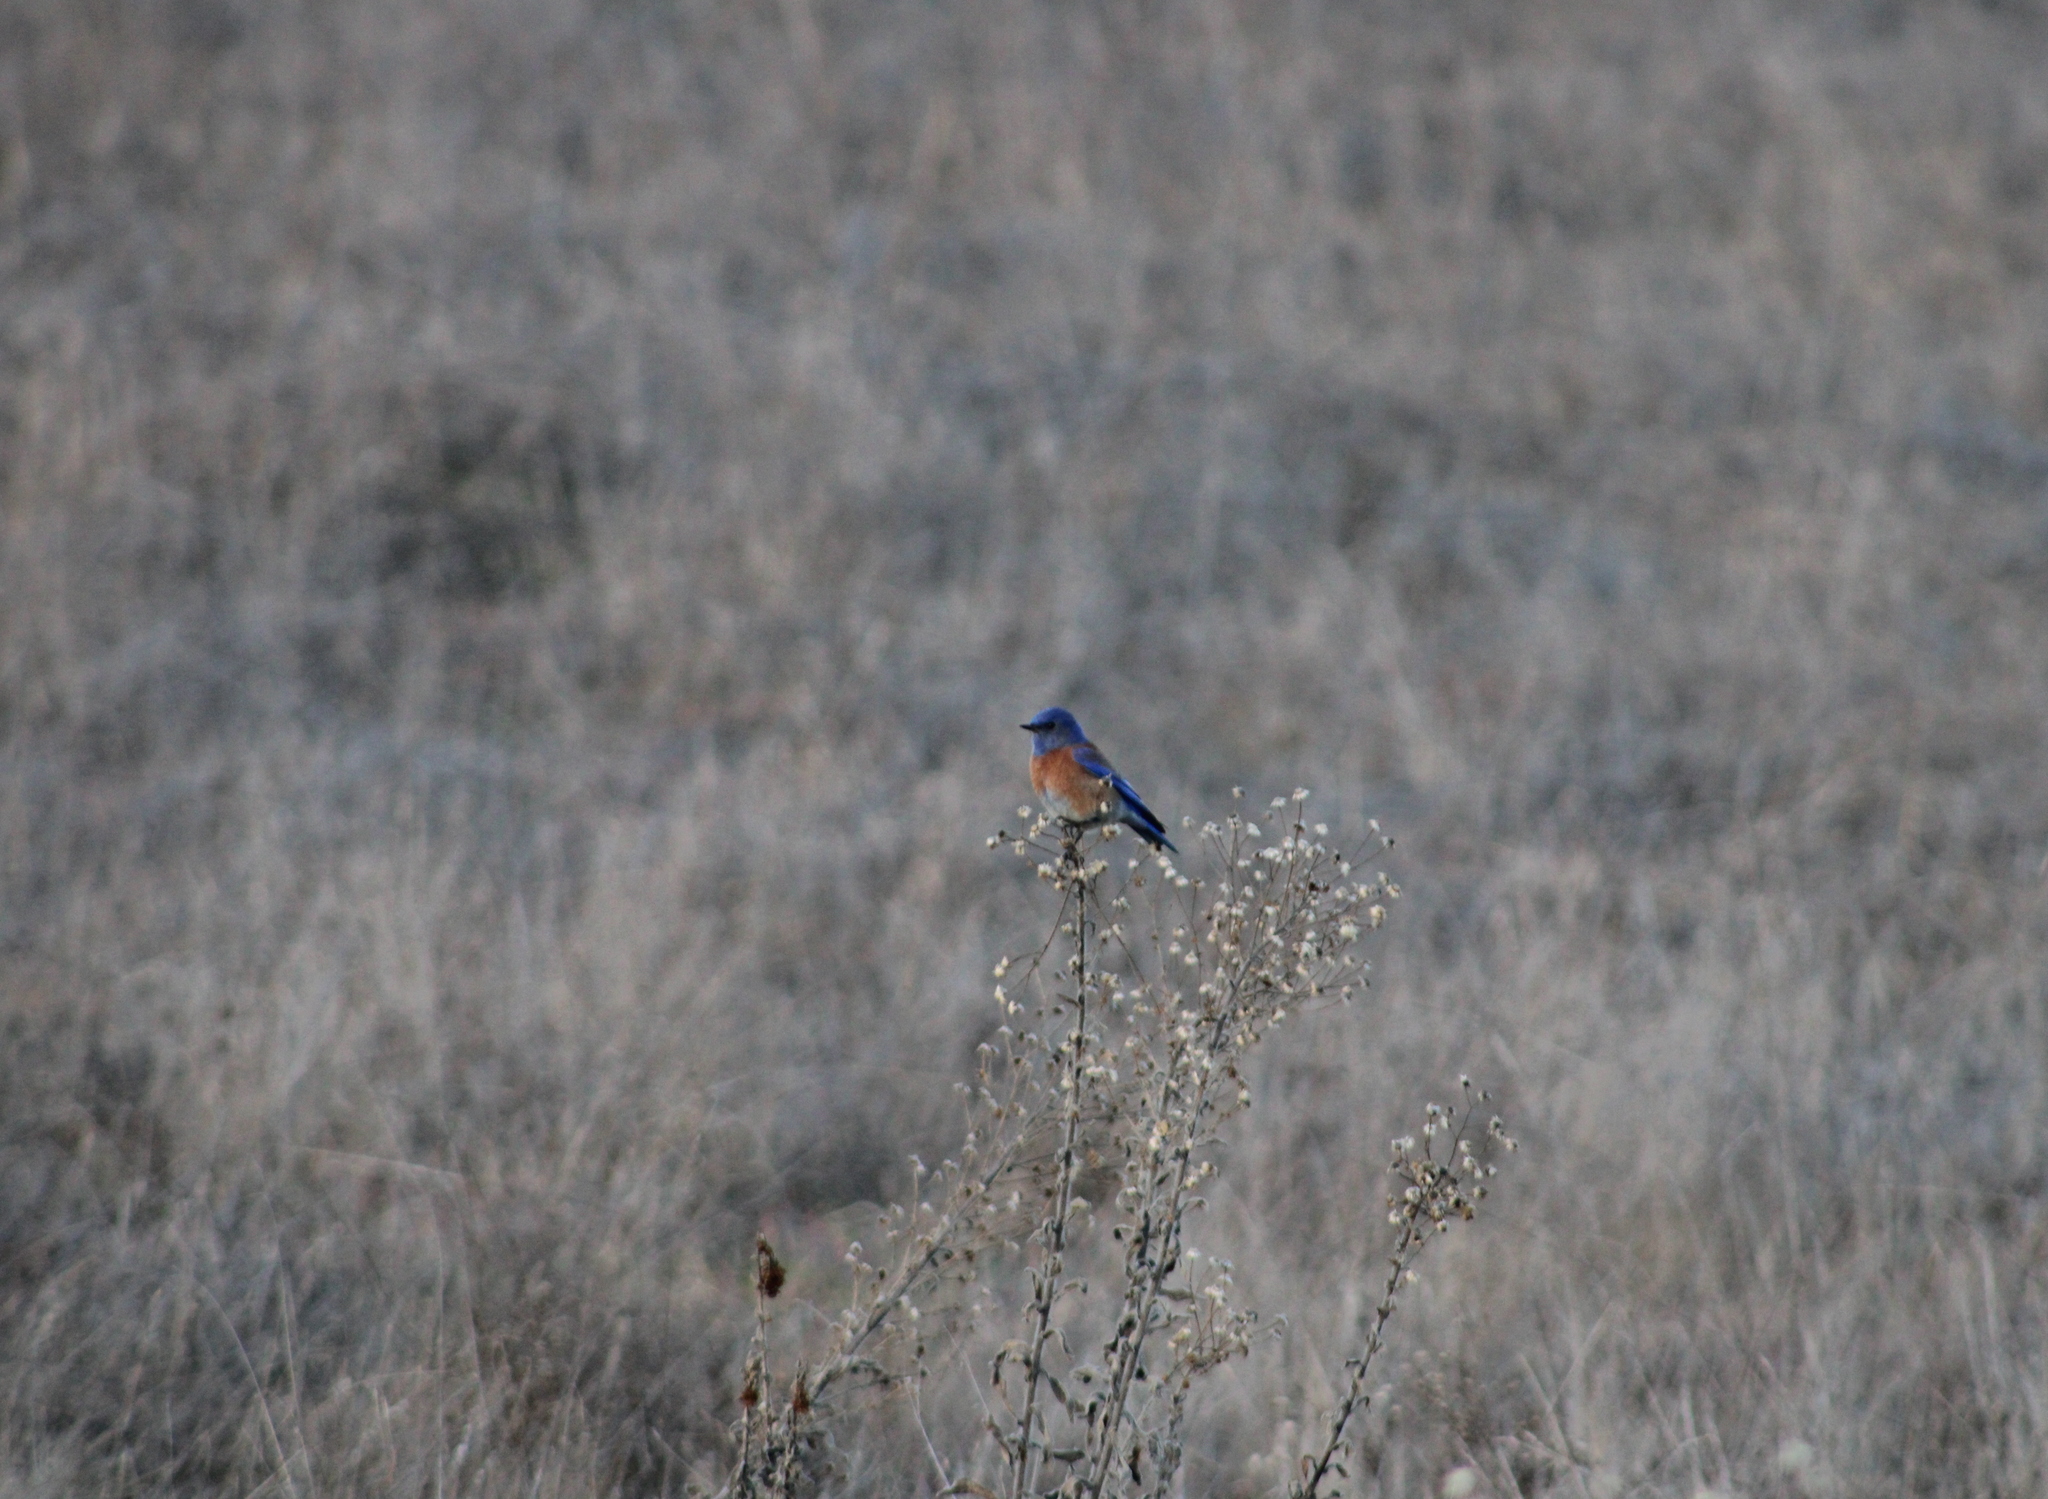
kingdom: Animalia
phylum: Chordata
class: Aves
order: Passeriformes
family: Turdidae
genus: Sialia
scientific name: Sialia mexicana
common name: Western bluebird
